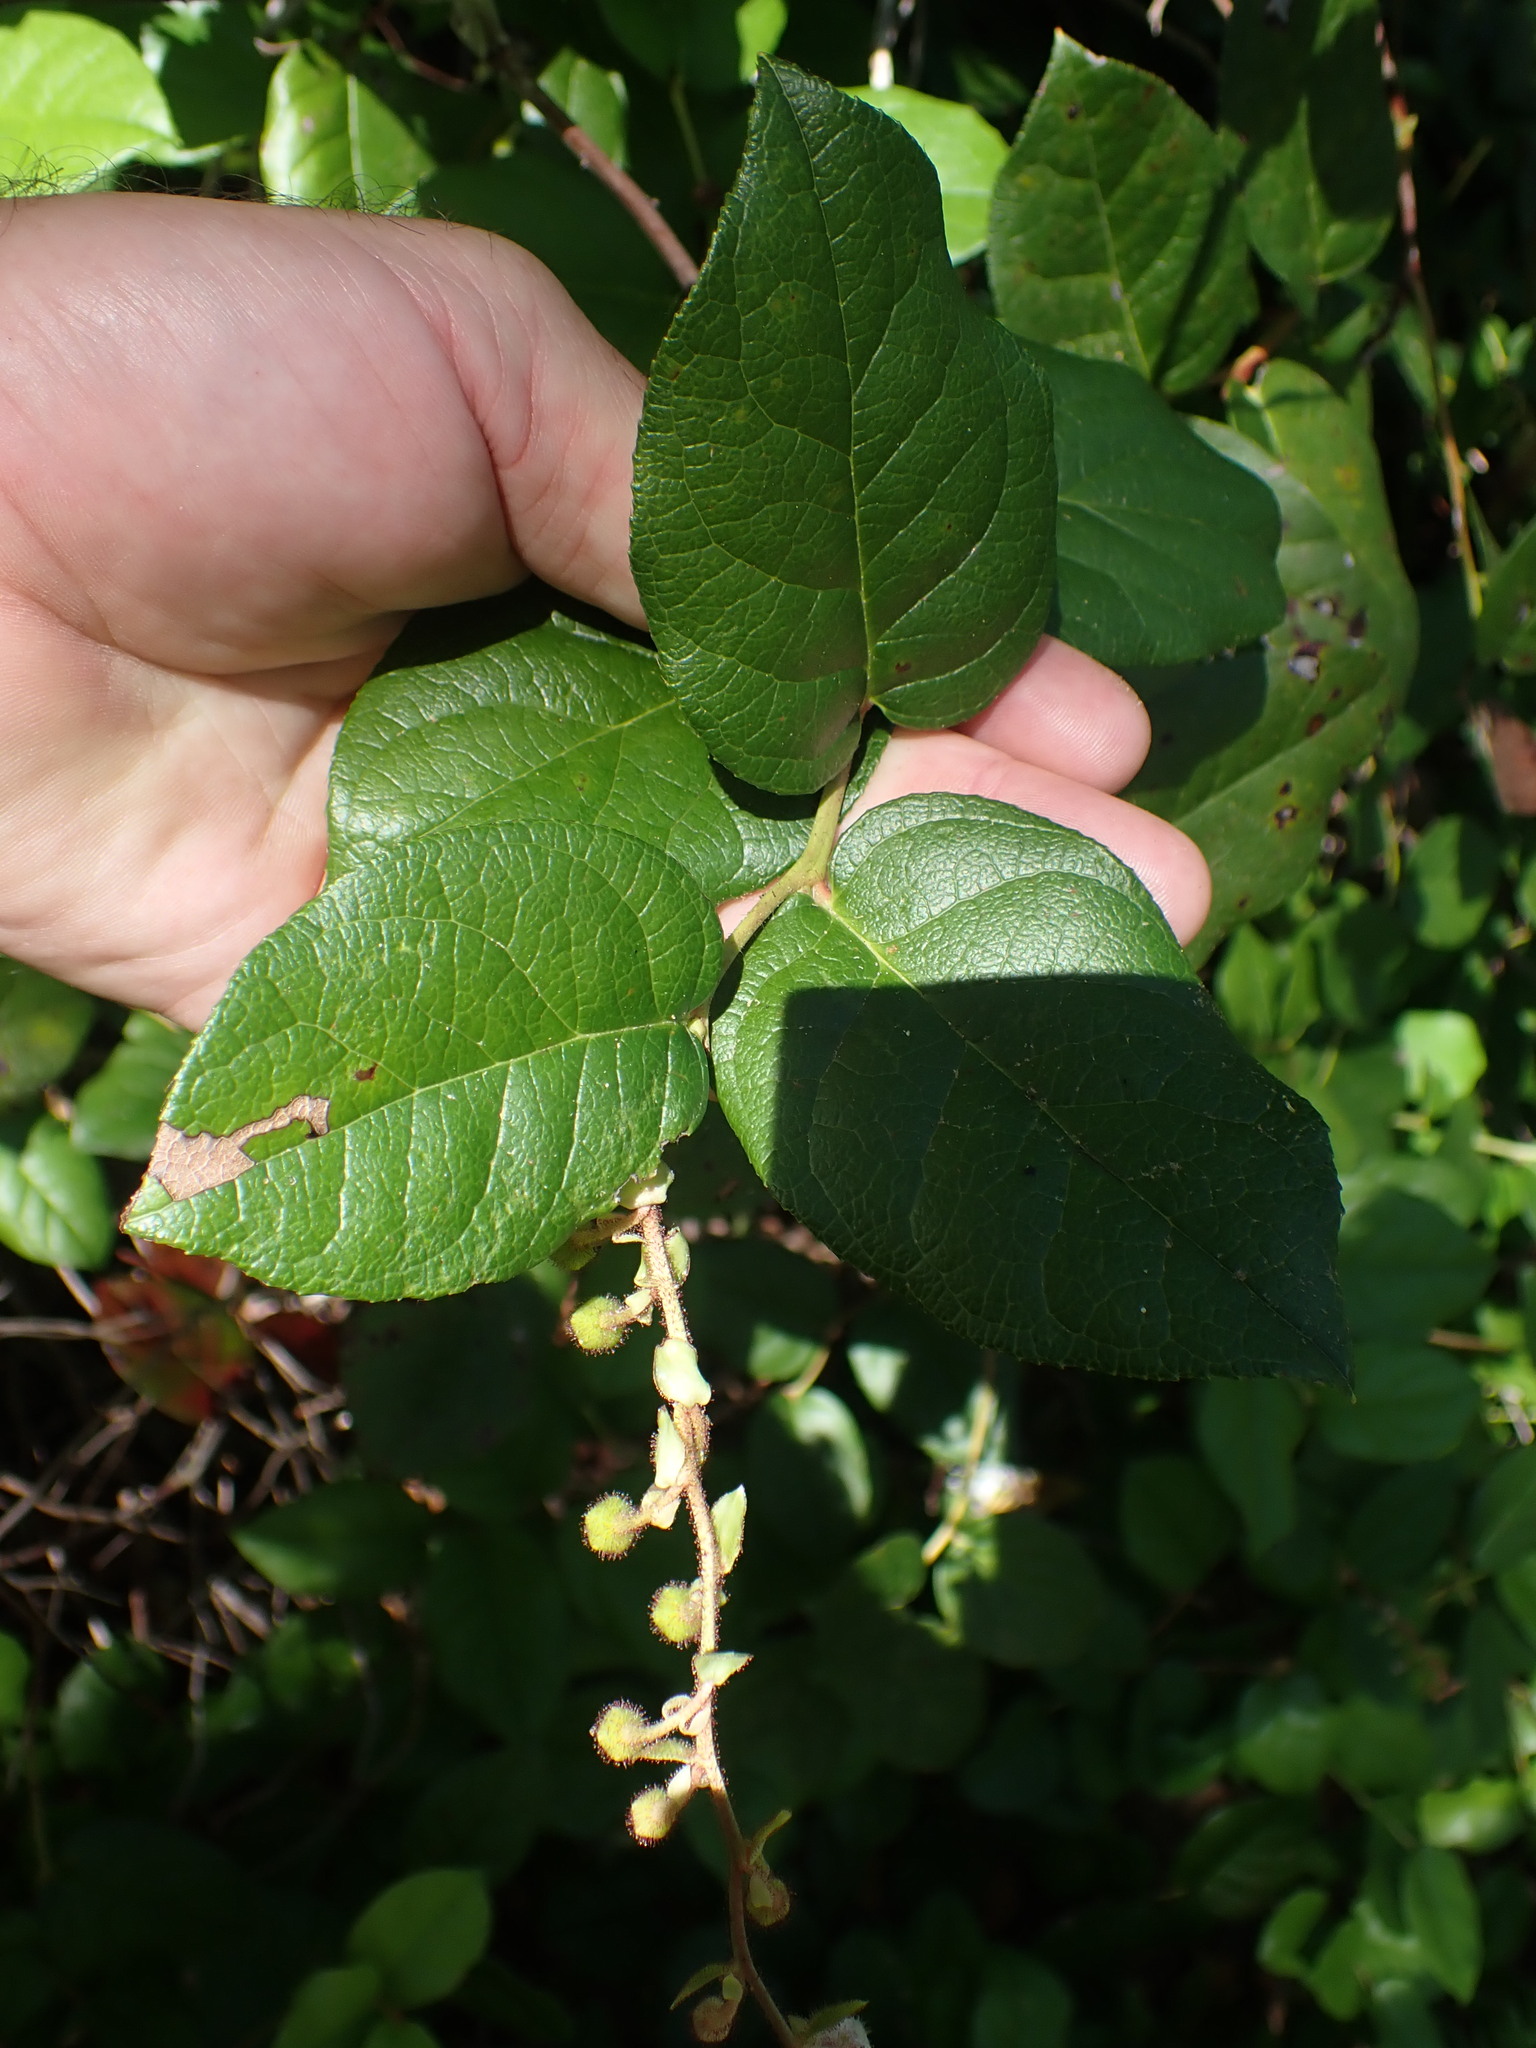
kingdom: Plantae
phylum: Tracheophyta
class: Magnoliopsida
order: Ericales
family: Ericaceae
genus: Gaultheria
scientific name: Gaultheria shallon
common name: Shallon
